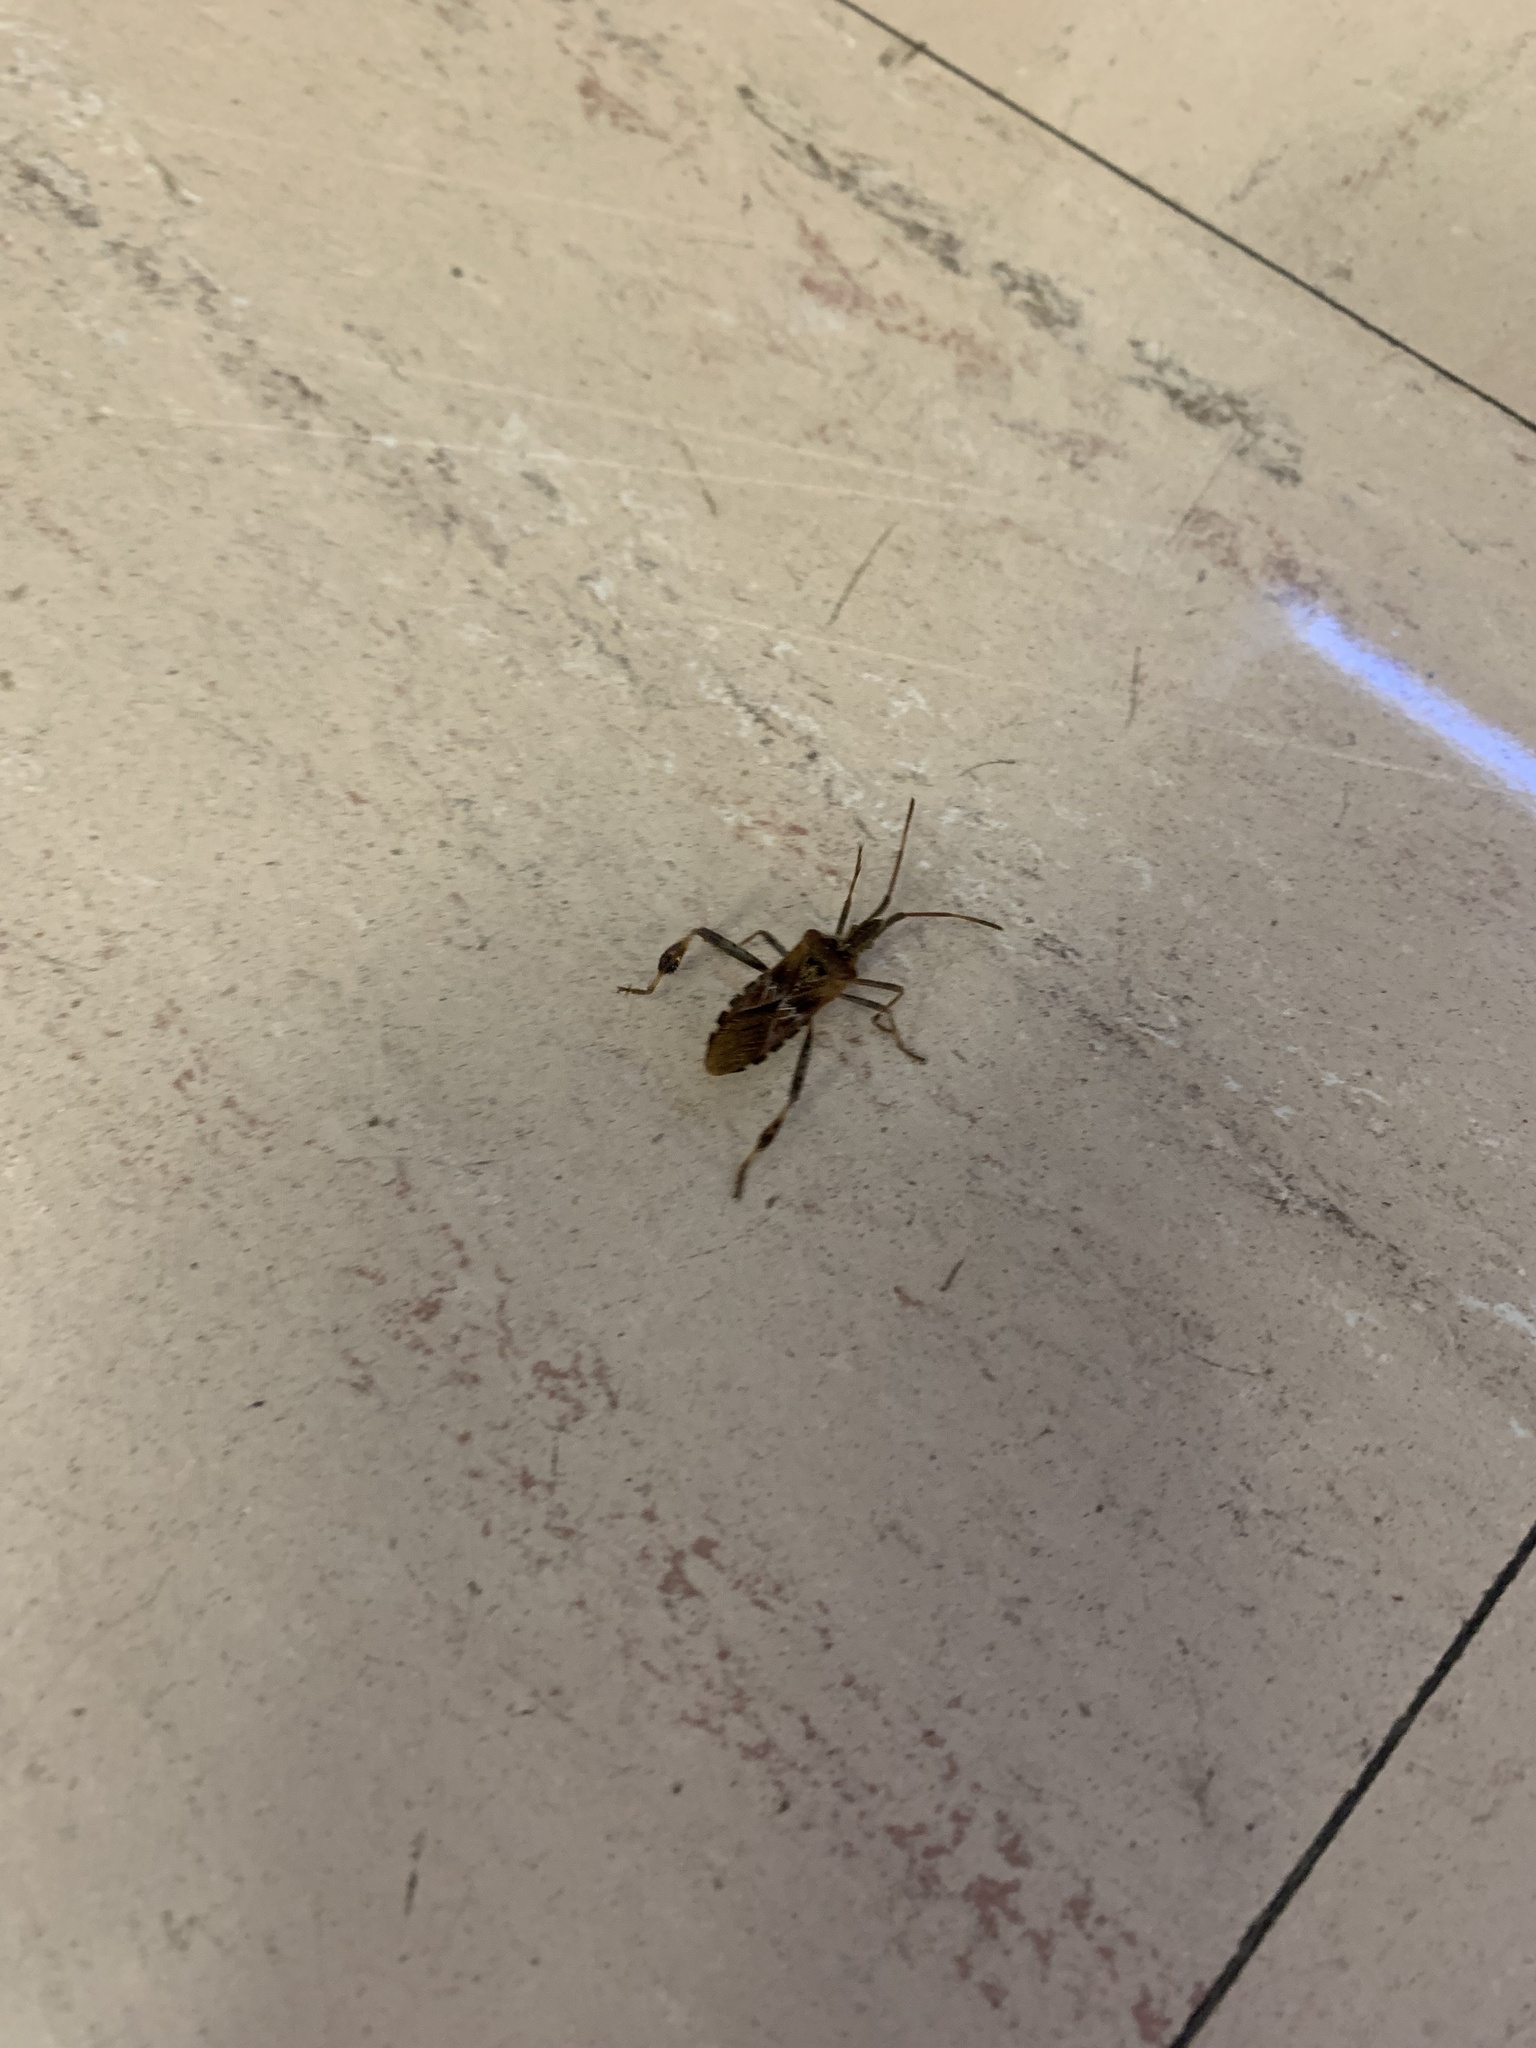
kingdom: Animalia
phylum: Arthropoda
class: Insecta
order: Hemiptera
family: Coreidae
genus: Leptoglossus
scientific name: Leptoglossus occidentalis
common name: Western conifer-seed bug
